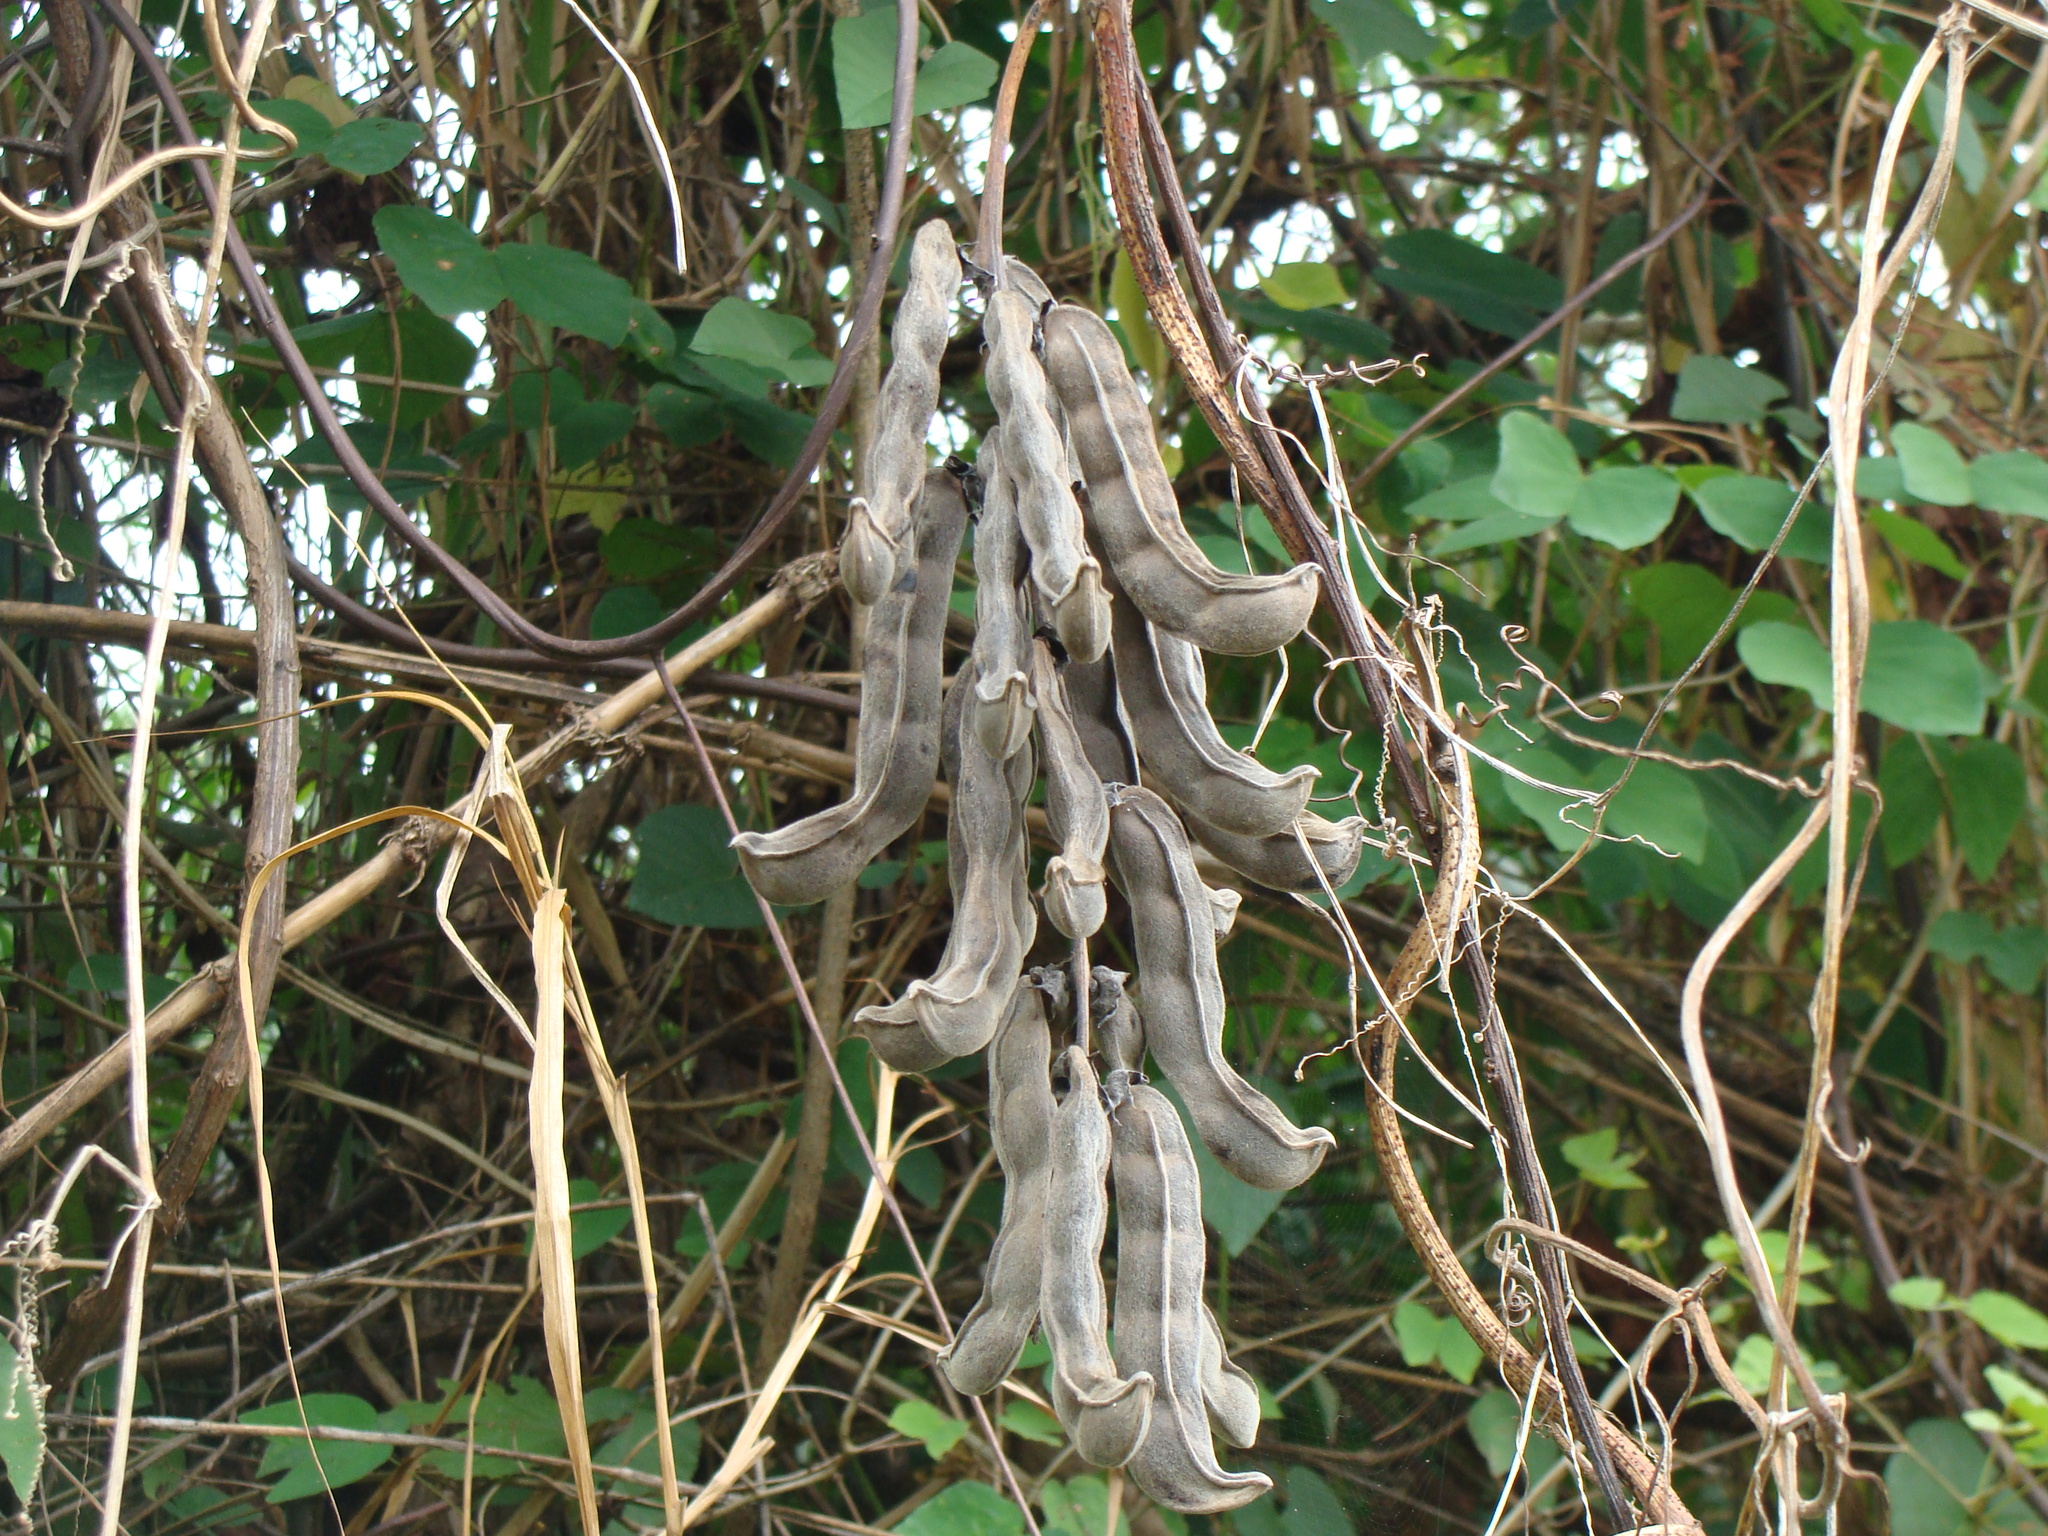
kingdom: Plantae
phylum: Tracheophyta
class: Magnoliopsida
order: Fabales
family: Fabaceae
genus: Mucuna
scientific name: Mucuna pruriens
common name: Cow-itch
